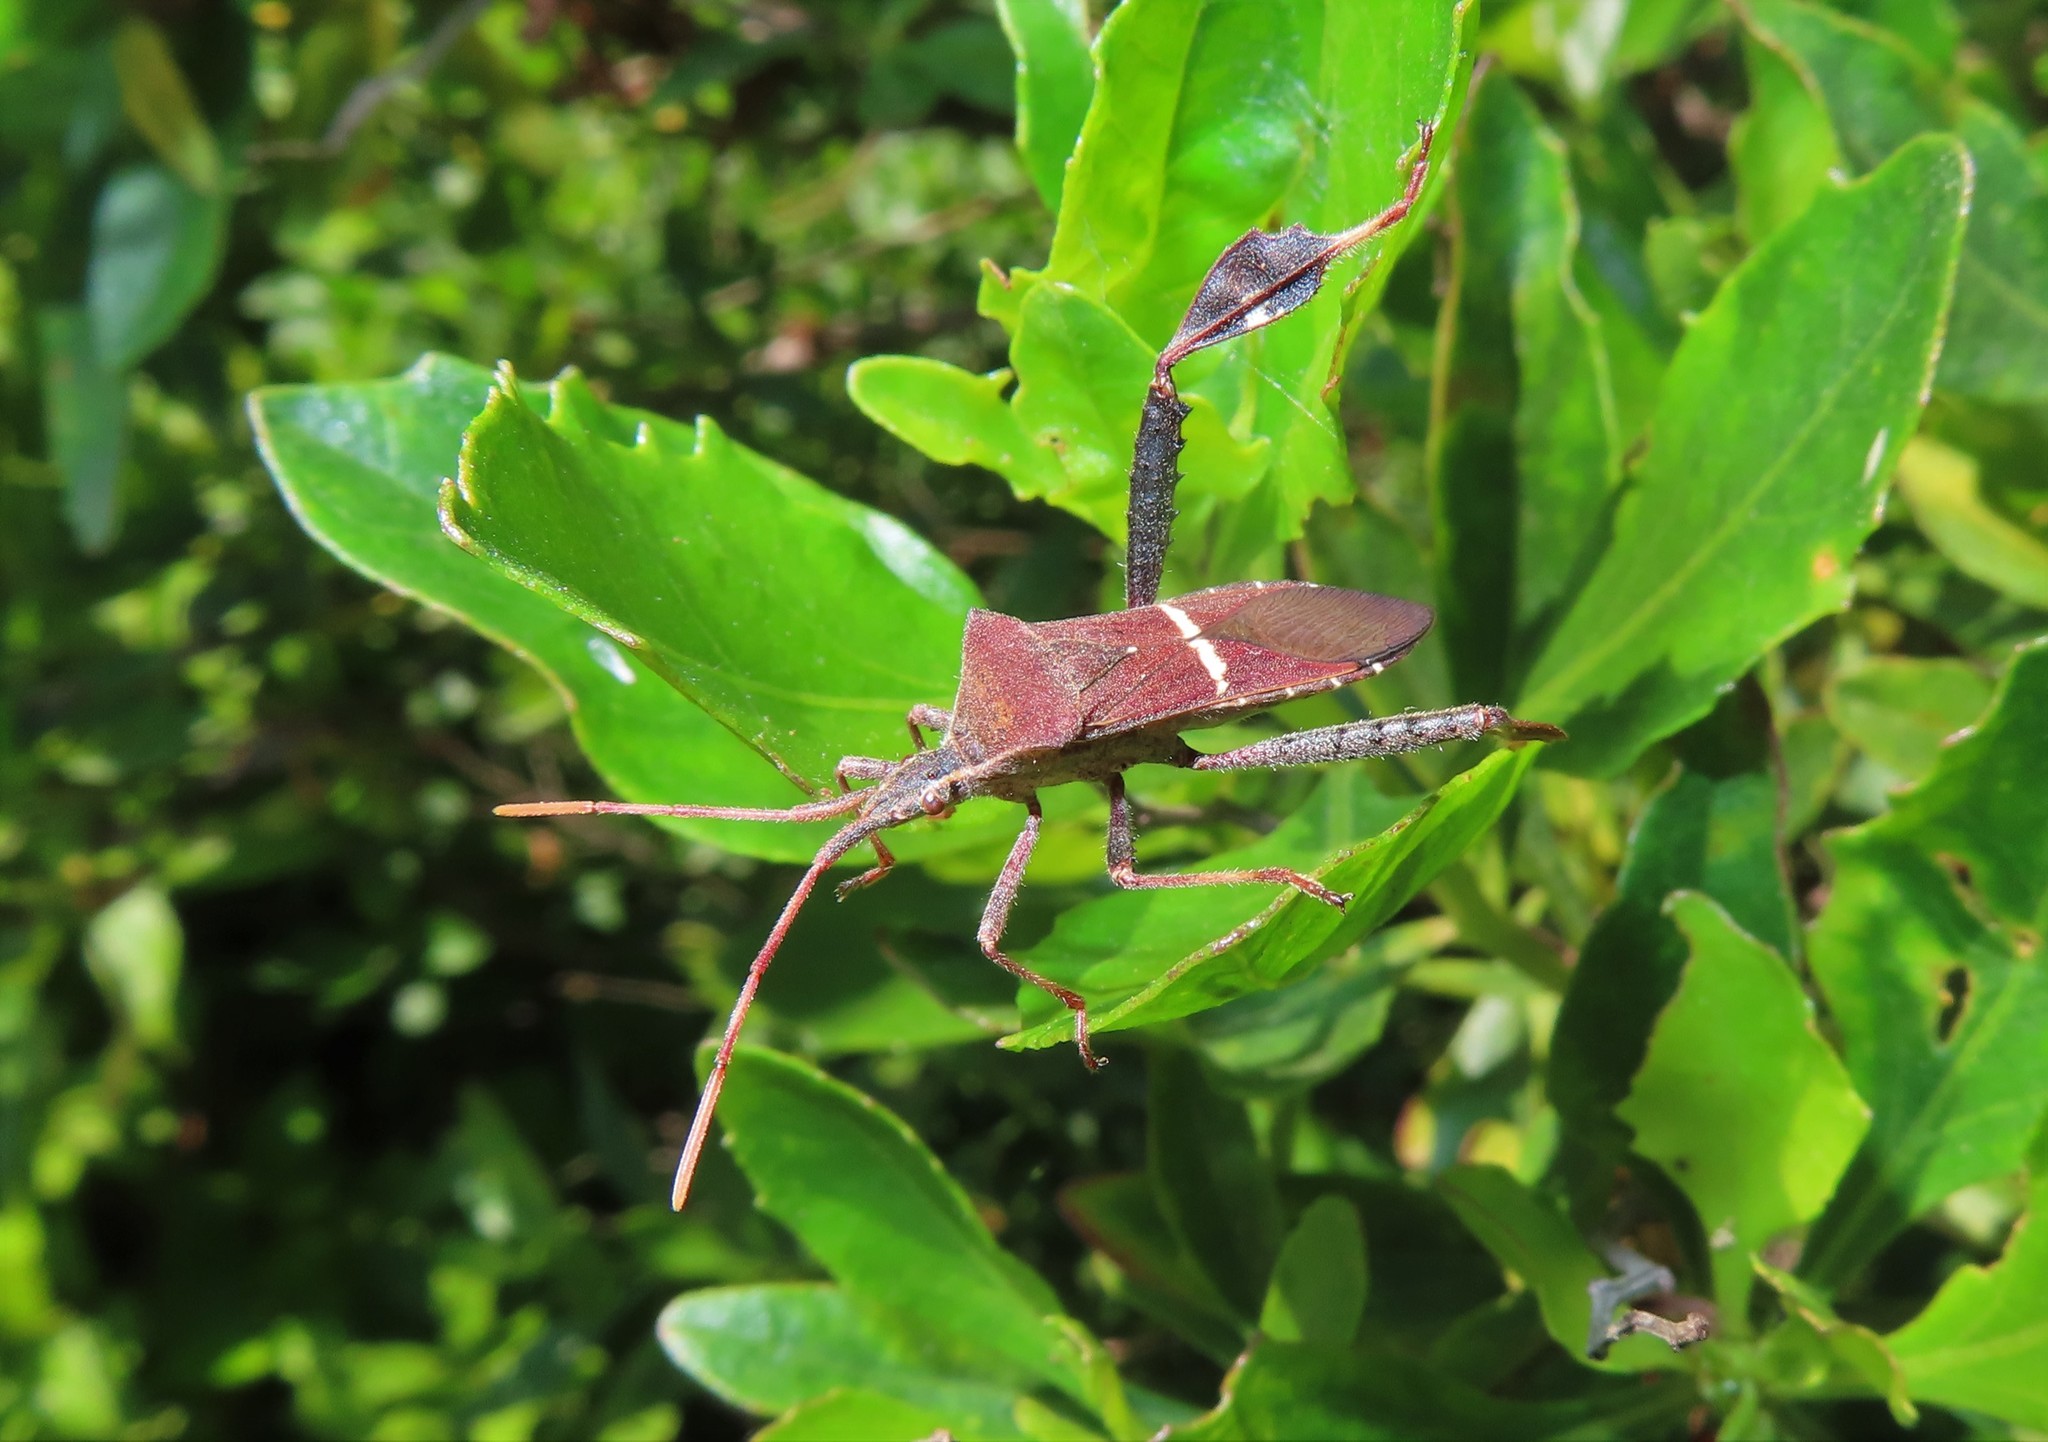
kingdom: Animalia
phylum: Arthropoda
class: Insecta
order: Hemiptera
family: Coreidae
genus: Leptoglossus
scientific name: Leptoglossus phyllopus
